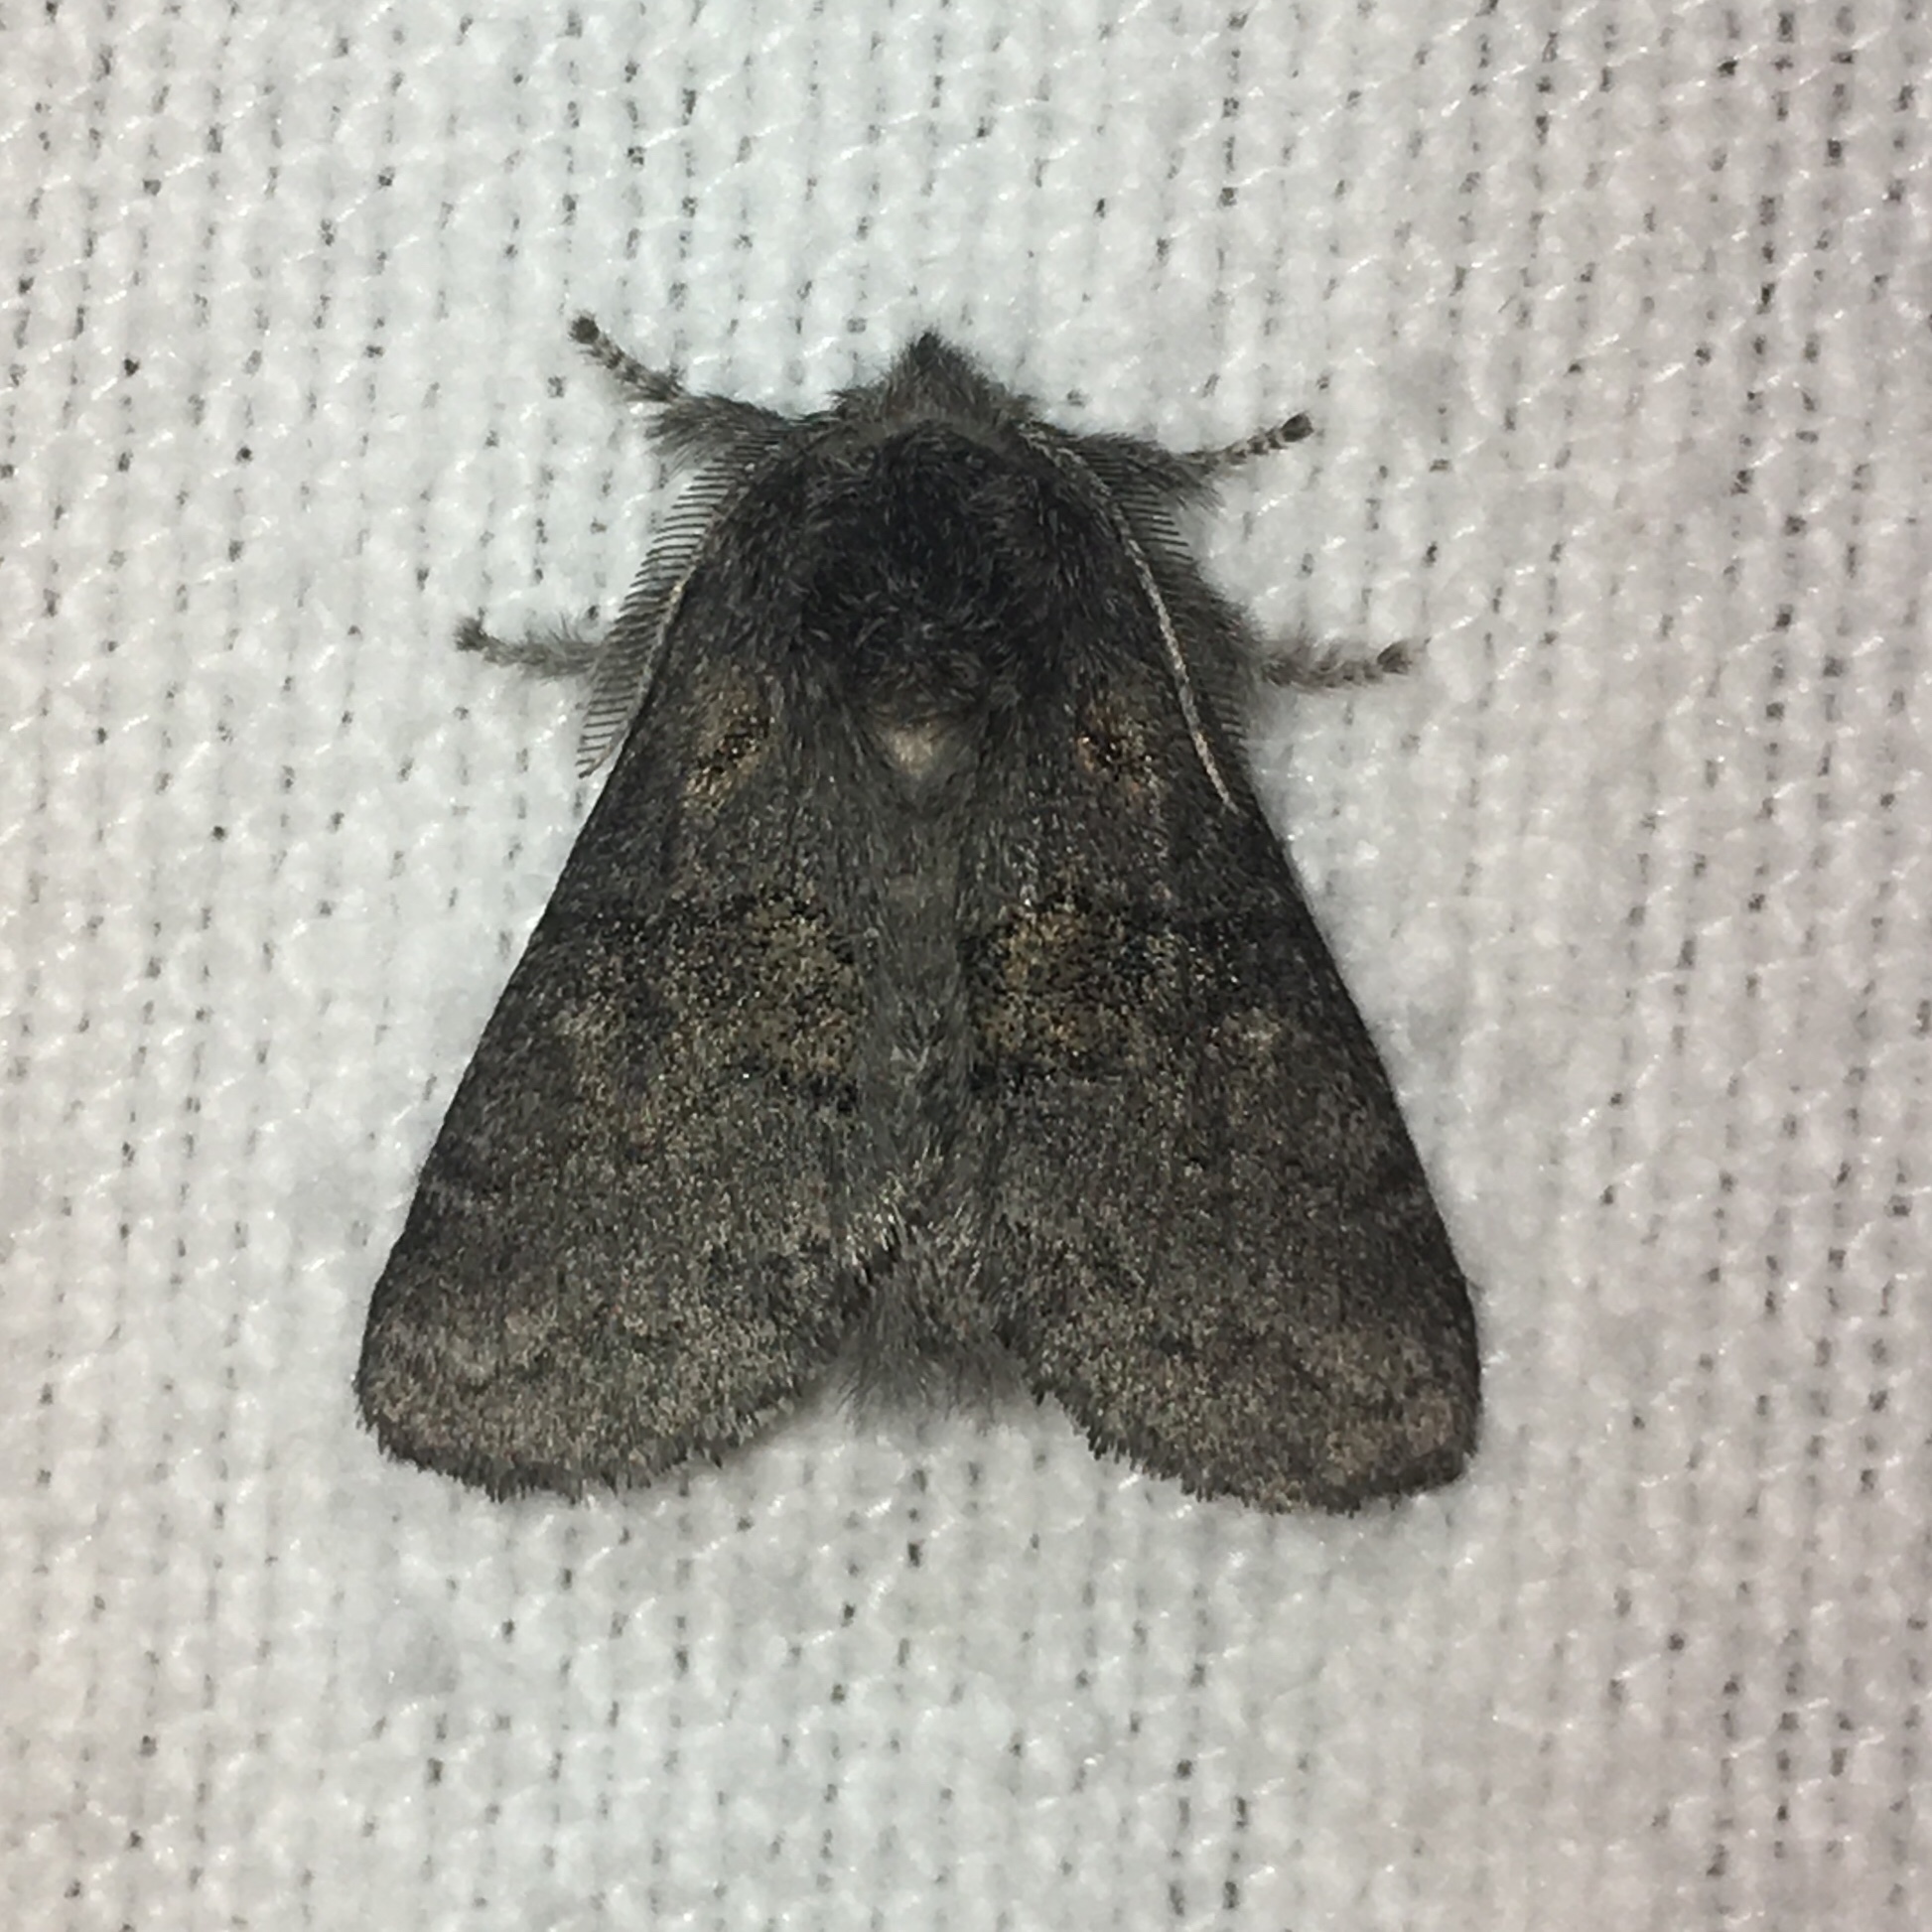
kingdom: Animalia
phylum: Arthropoda
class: Insecta
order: Lepidoptera
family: Notodontidae
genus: Gluphisia
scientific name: Gluphisia septentrionis
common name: Common gluphisia
